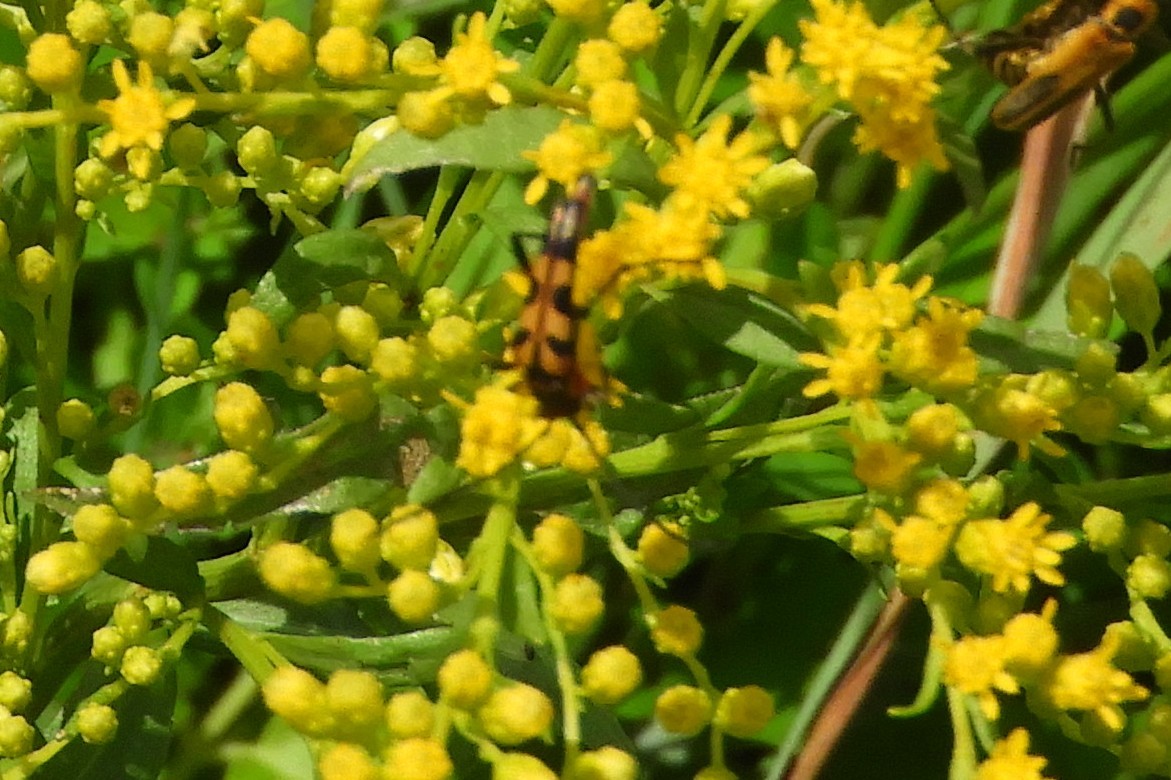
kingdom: Animalia
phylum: Arthropoda
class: Insecta
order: Coleoptera
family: Cerambycidae
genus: Strangalia
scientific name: Strangalia sexnotata
